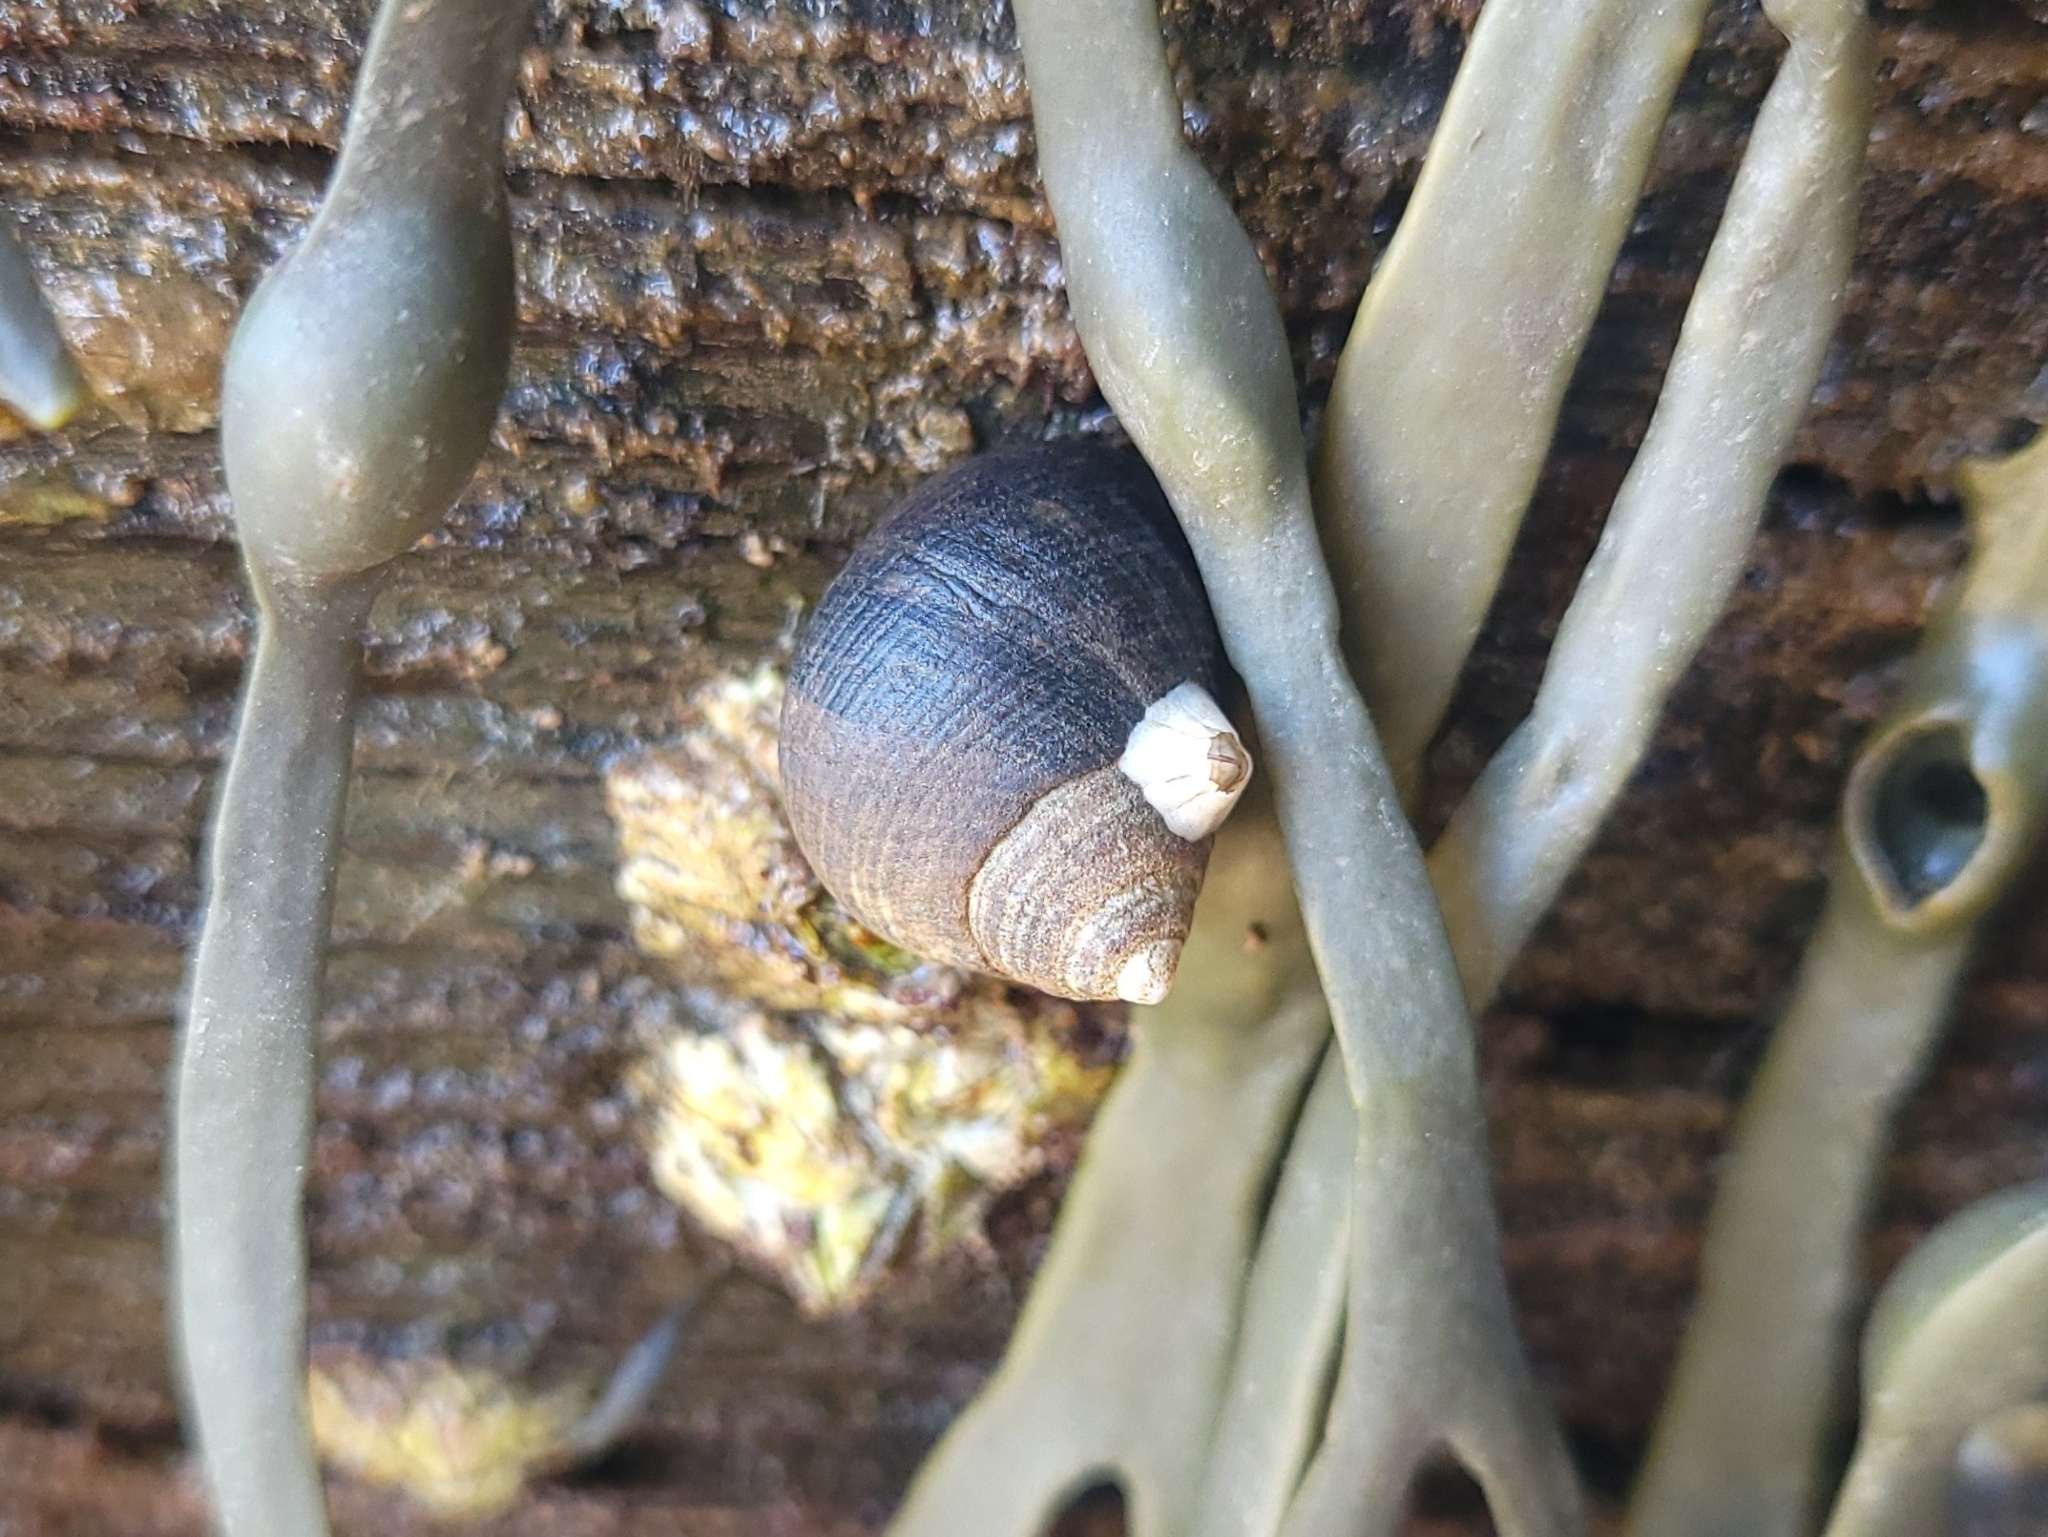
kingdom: Animalia
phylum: Mollusca
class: Gastropoda
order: Littorinimorpha
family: Littorinidae
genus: Littorina
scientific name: Littorina littorea
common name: Common periwinkle
